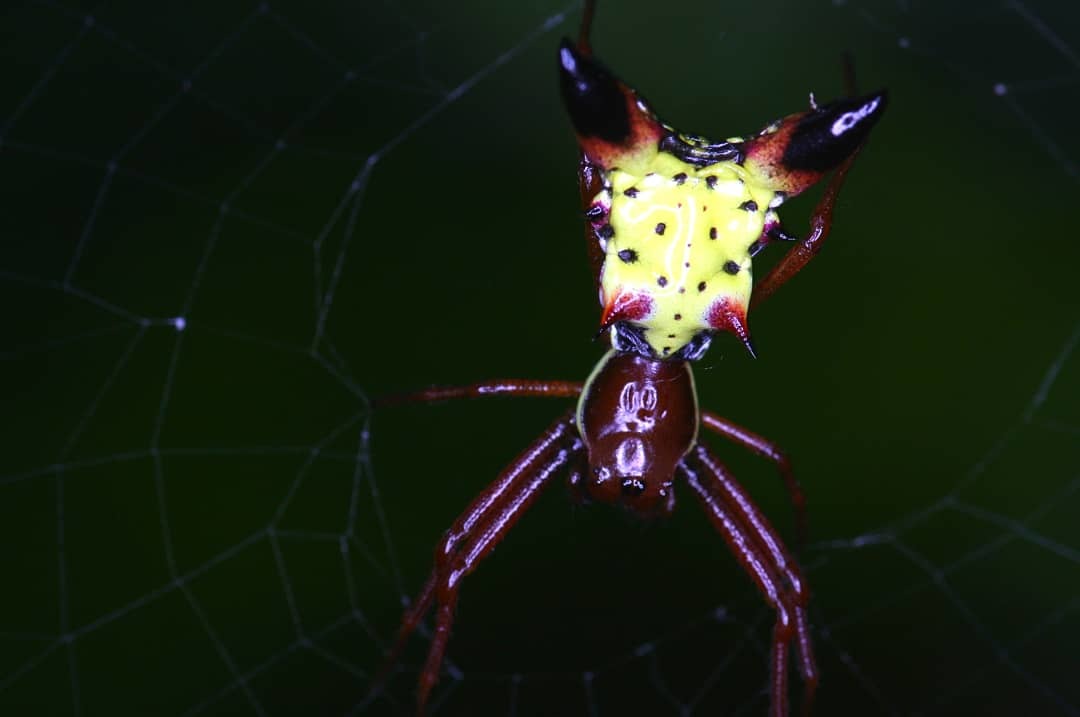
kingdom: Animalia
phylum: Arthropoda
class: Arachnida
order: Araneae
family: Araneidae
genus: Micrathena
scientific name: Micrathena sagittata
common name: Orb weavers
